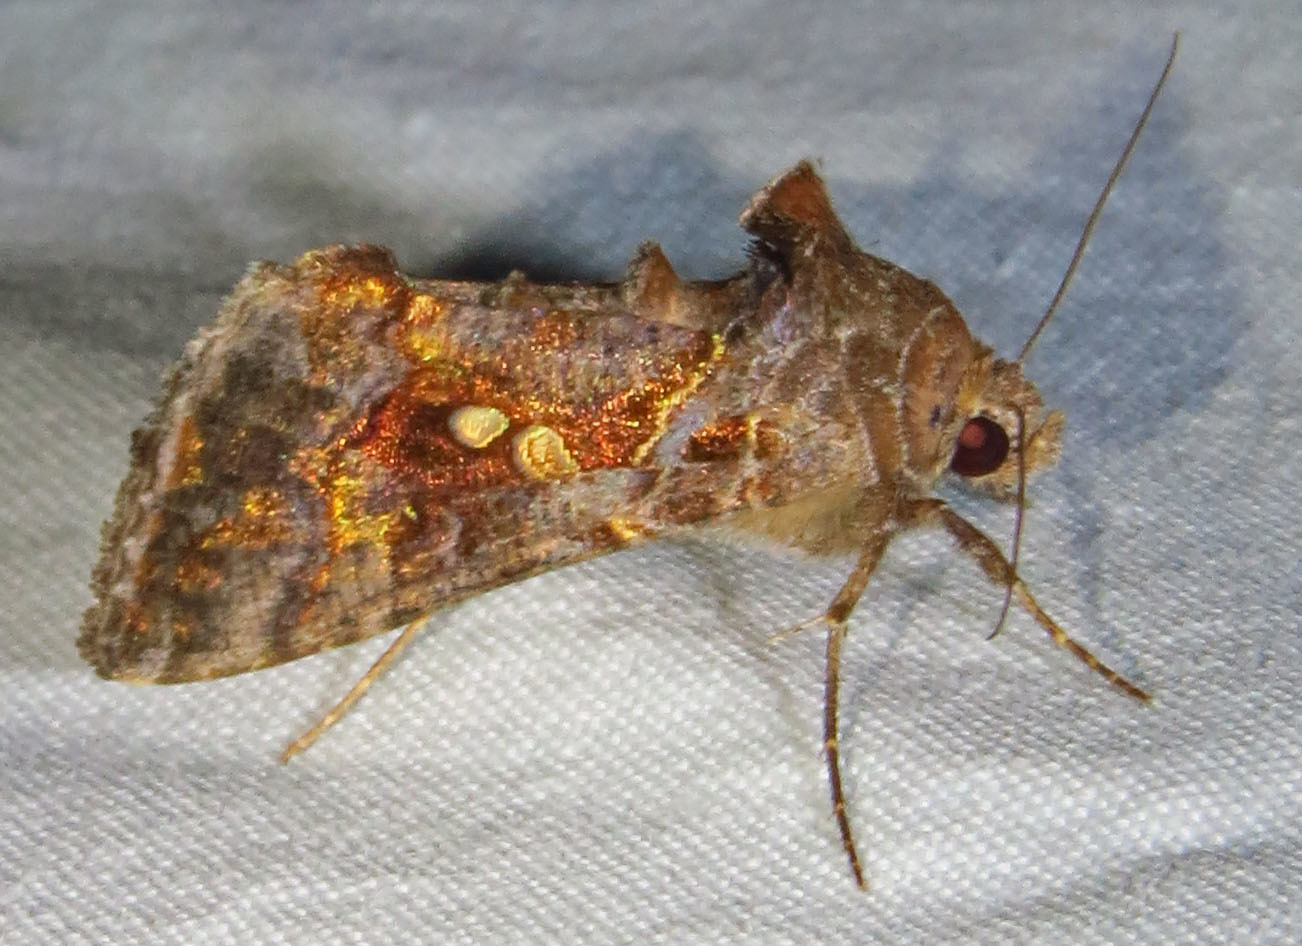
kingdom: Animalia
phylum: Arthropoda
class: Insecta
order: Lepidoptera
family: Noctuidae
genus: Chrysodeixis
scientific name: Chrysodeixis includens
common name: Cutworm moth
